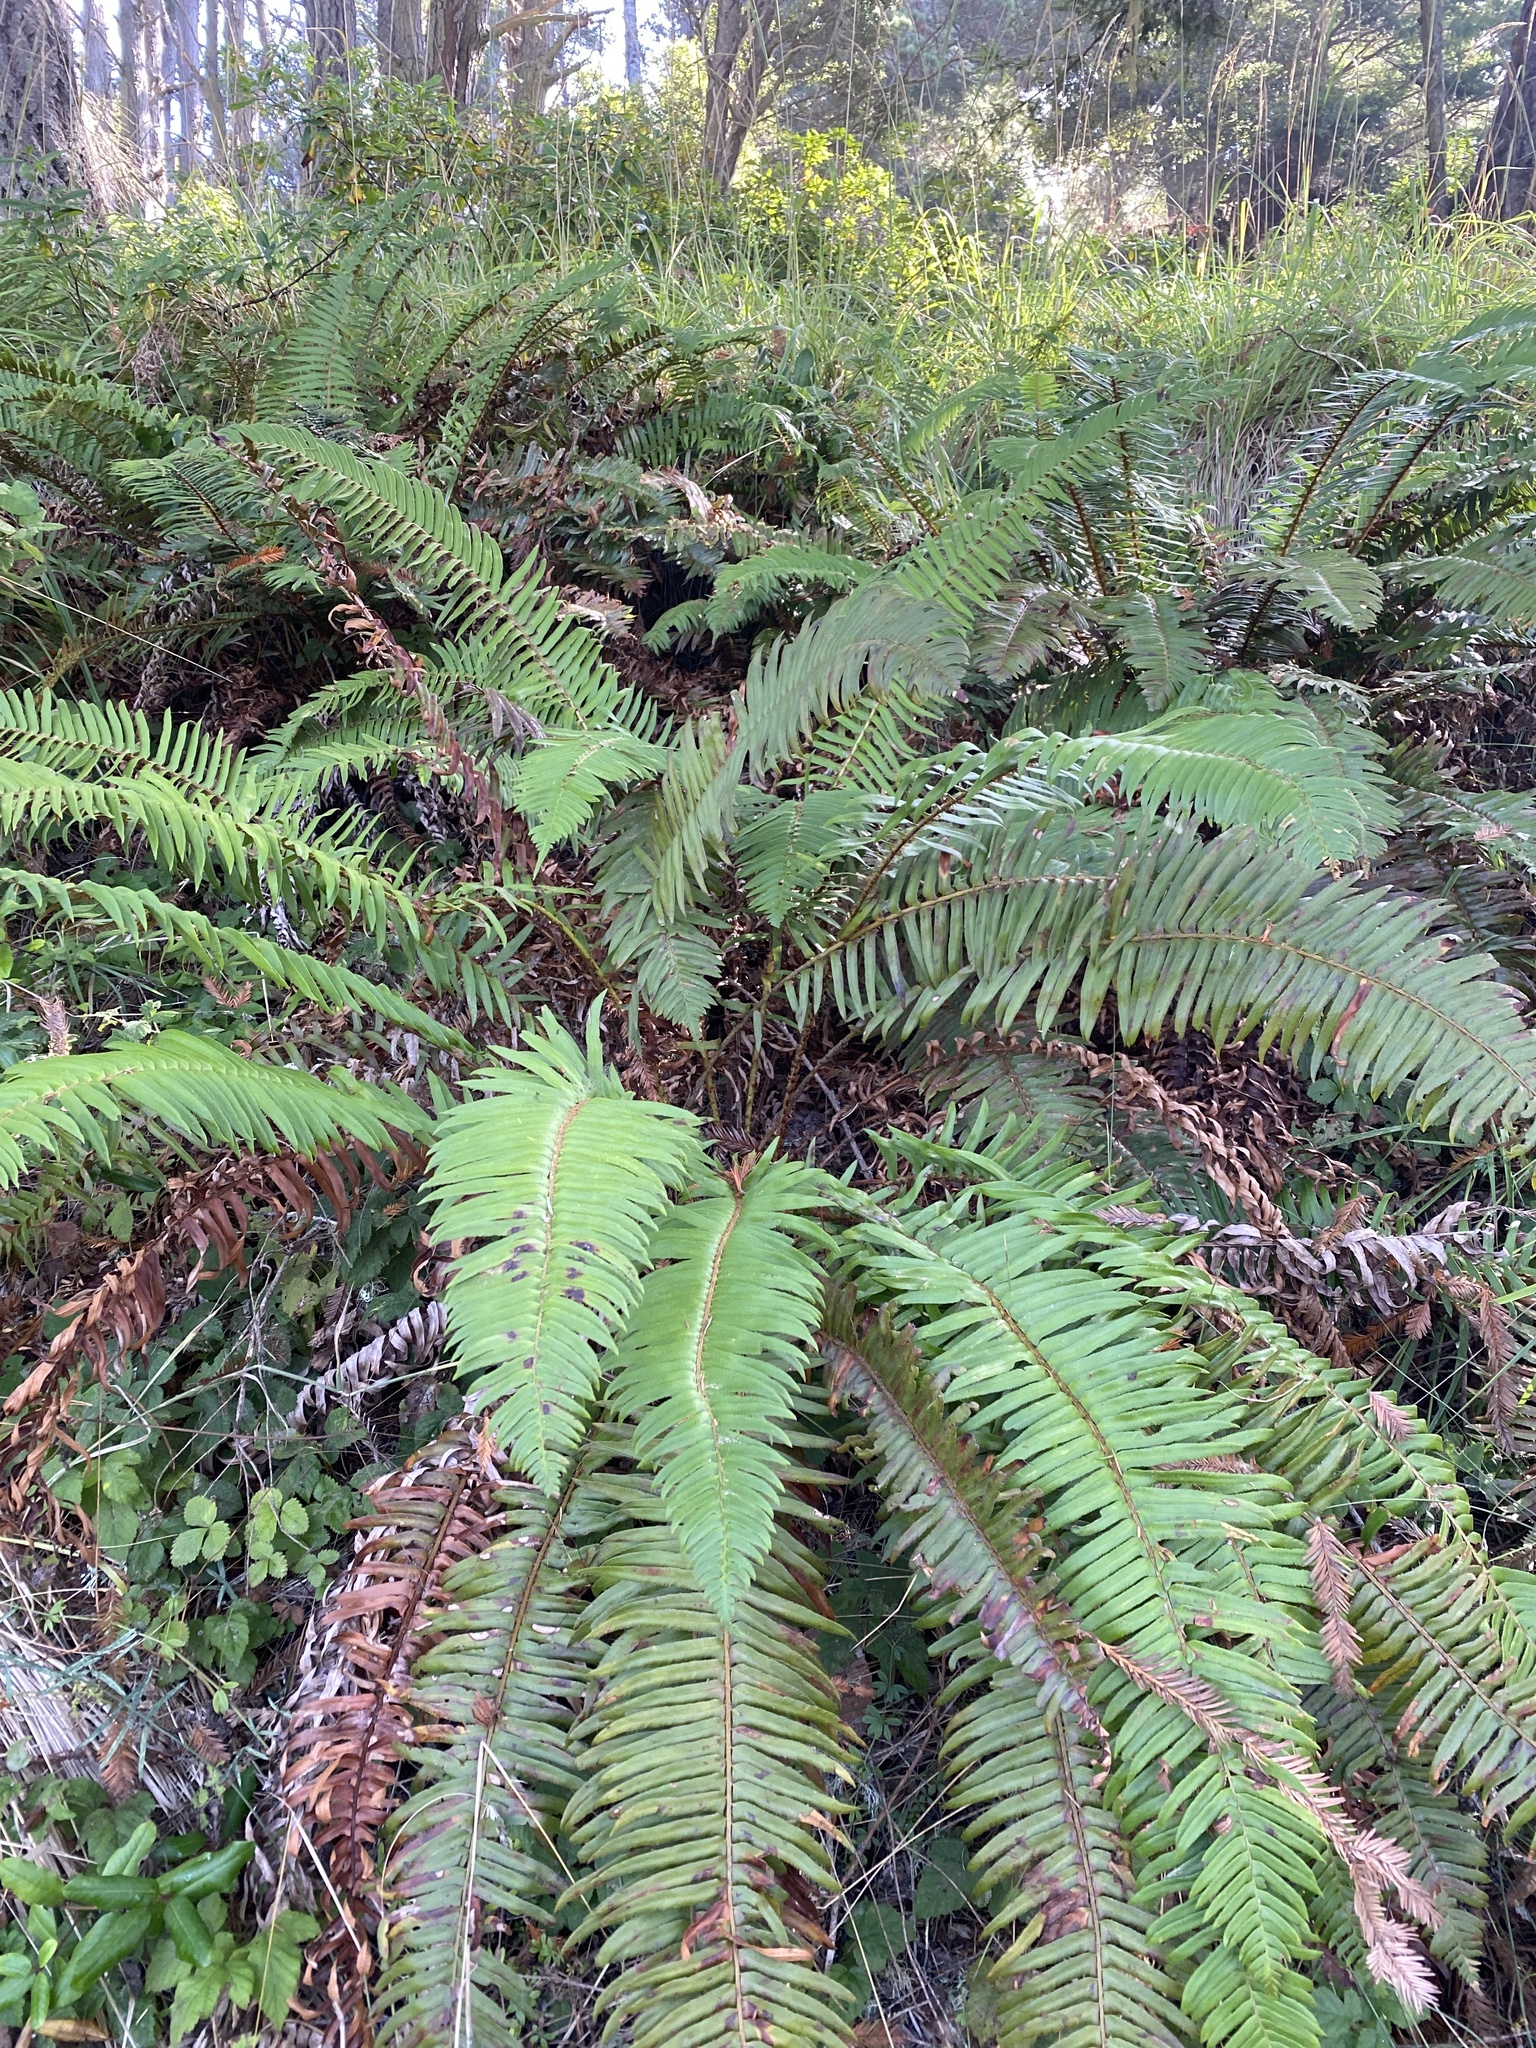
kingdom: Plantae
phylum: Tracheophyta
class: Polypodiopsida
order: Polypodiales
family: Dryopteridaceae
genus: Polystichum
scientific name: Polystichum munitum
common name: Western sword-fern
